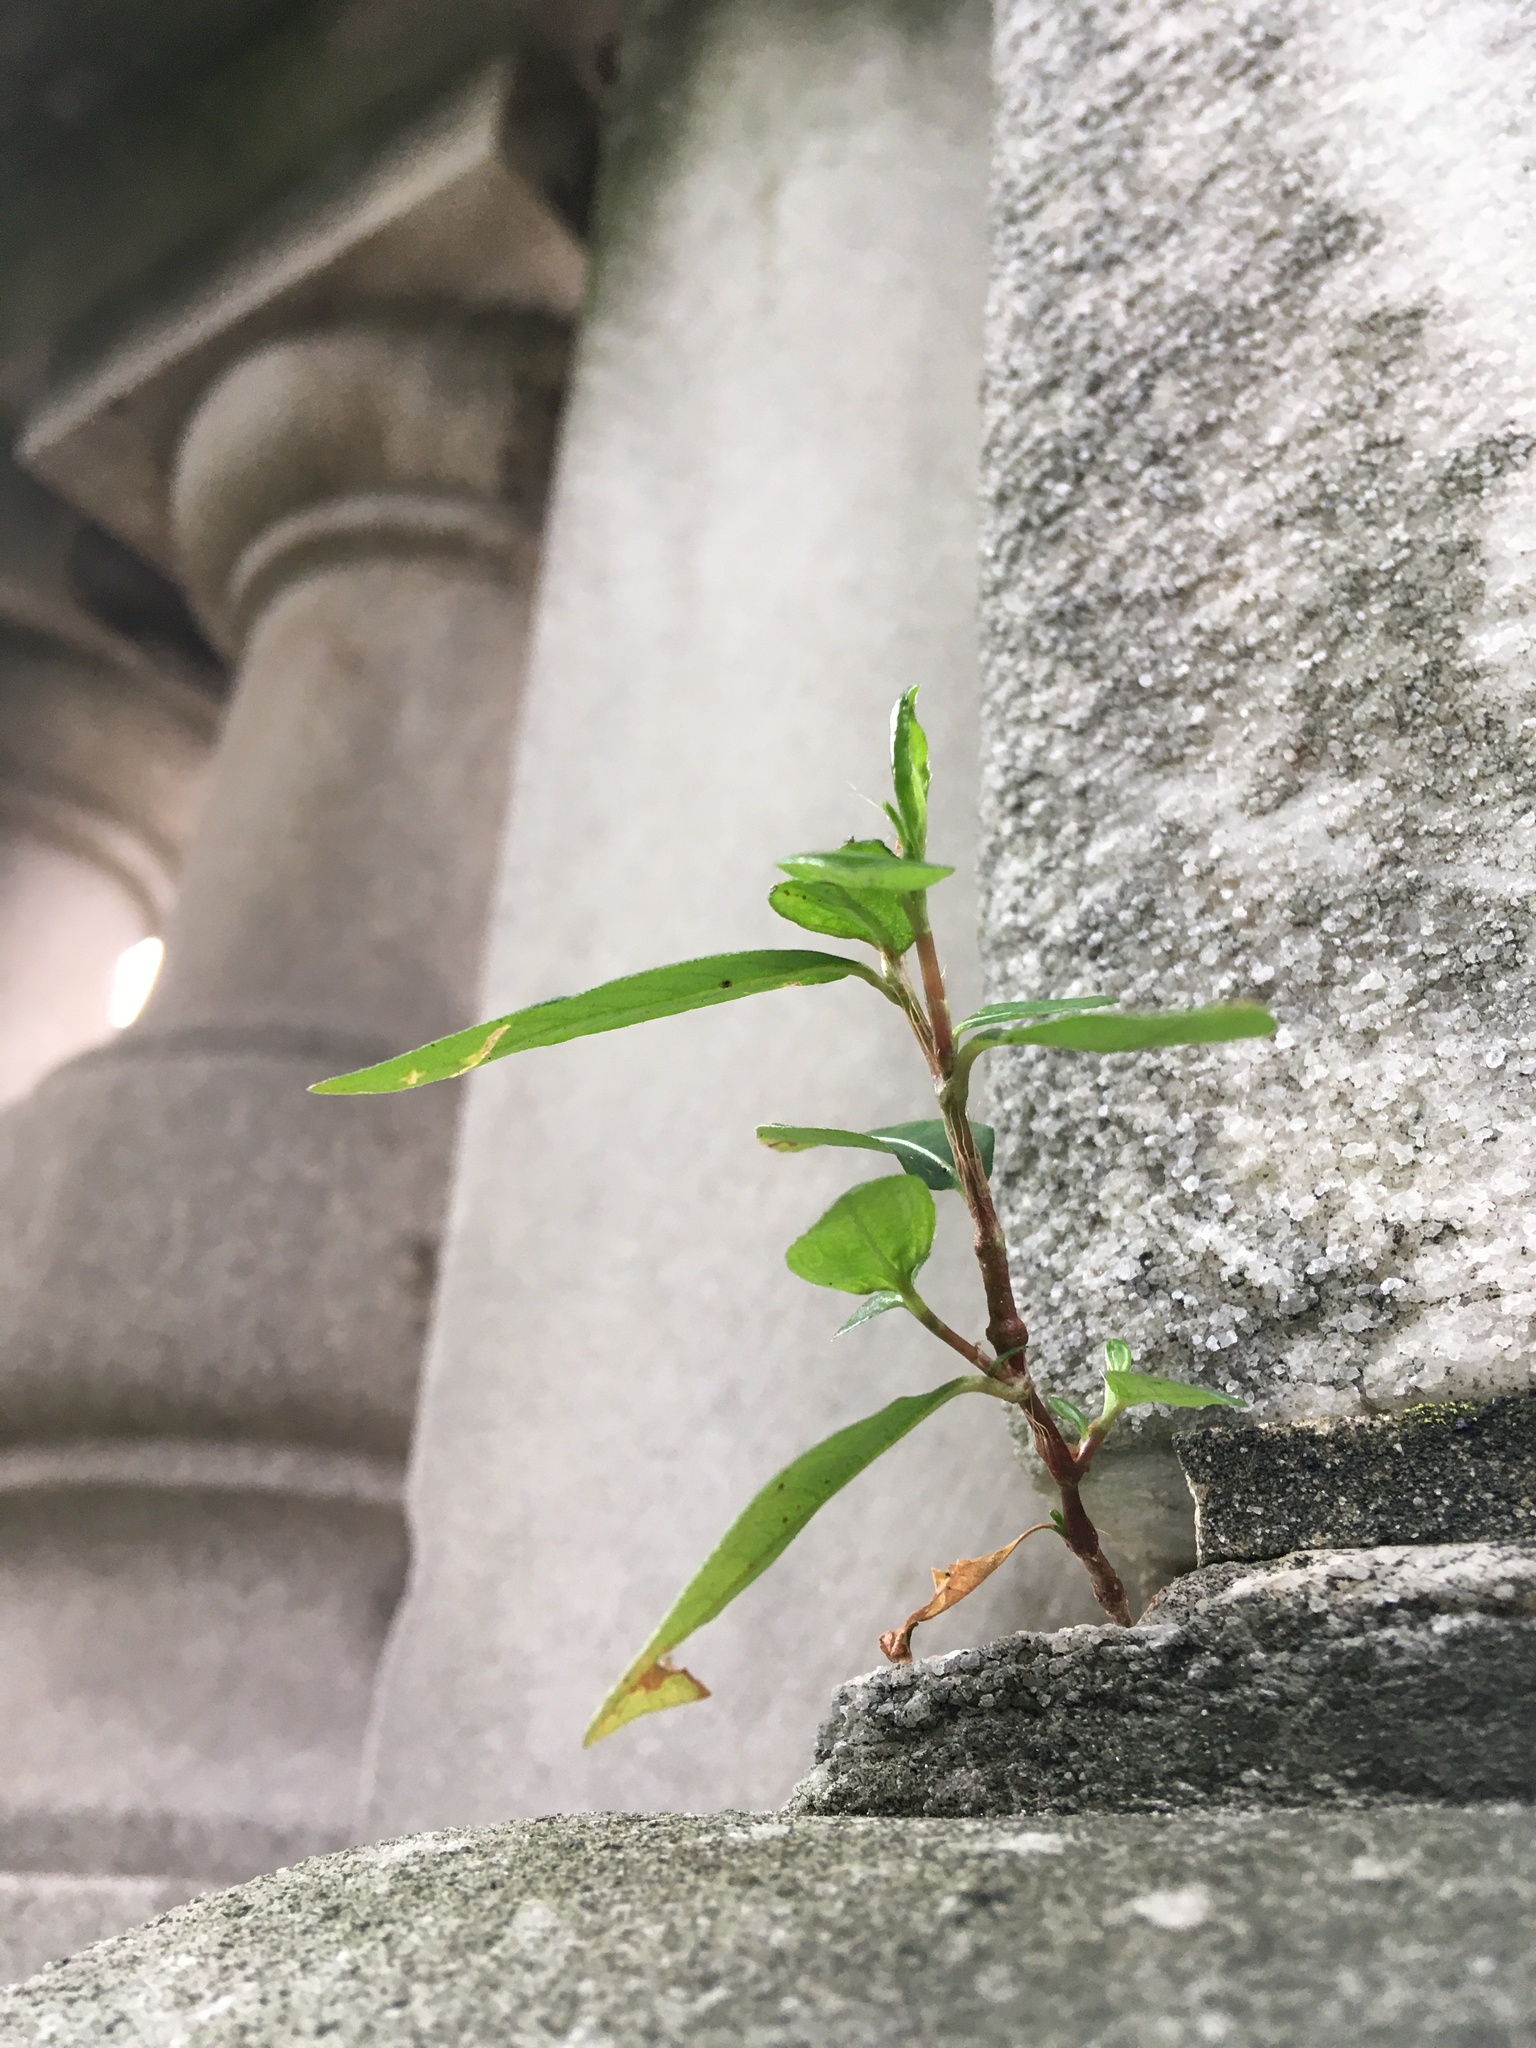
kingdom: Plantae
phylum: Tracheophyta
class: Magnoliopsida
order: Caryophyllales
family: Polygonaceae
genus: Persicaria
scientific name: Persicaria longiseta
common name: Bristly lady's-thumb
